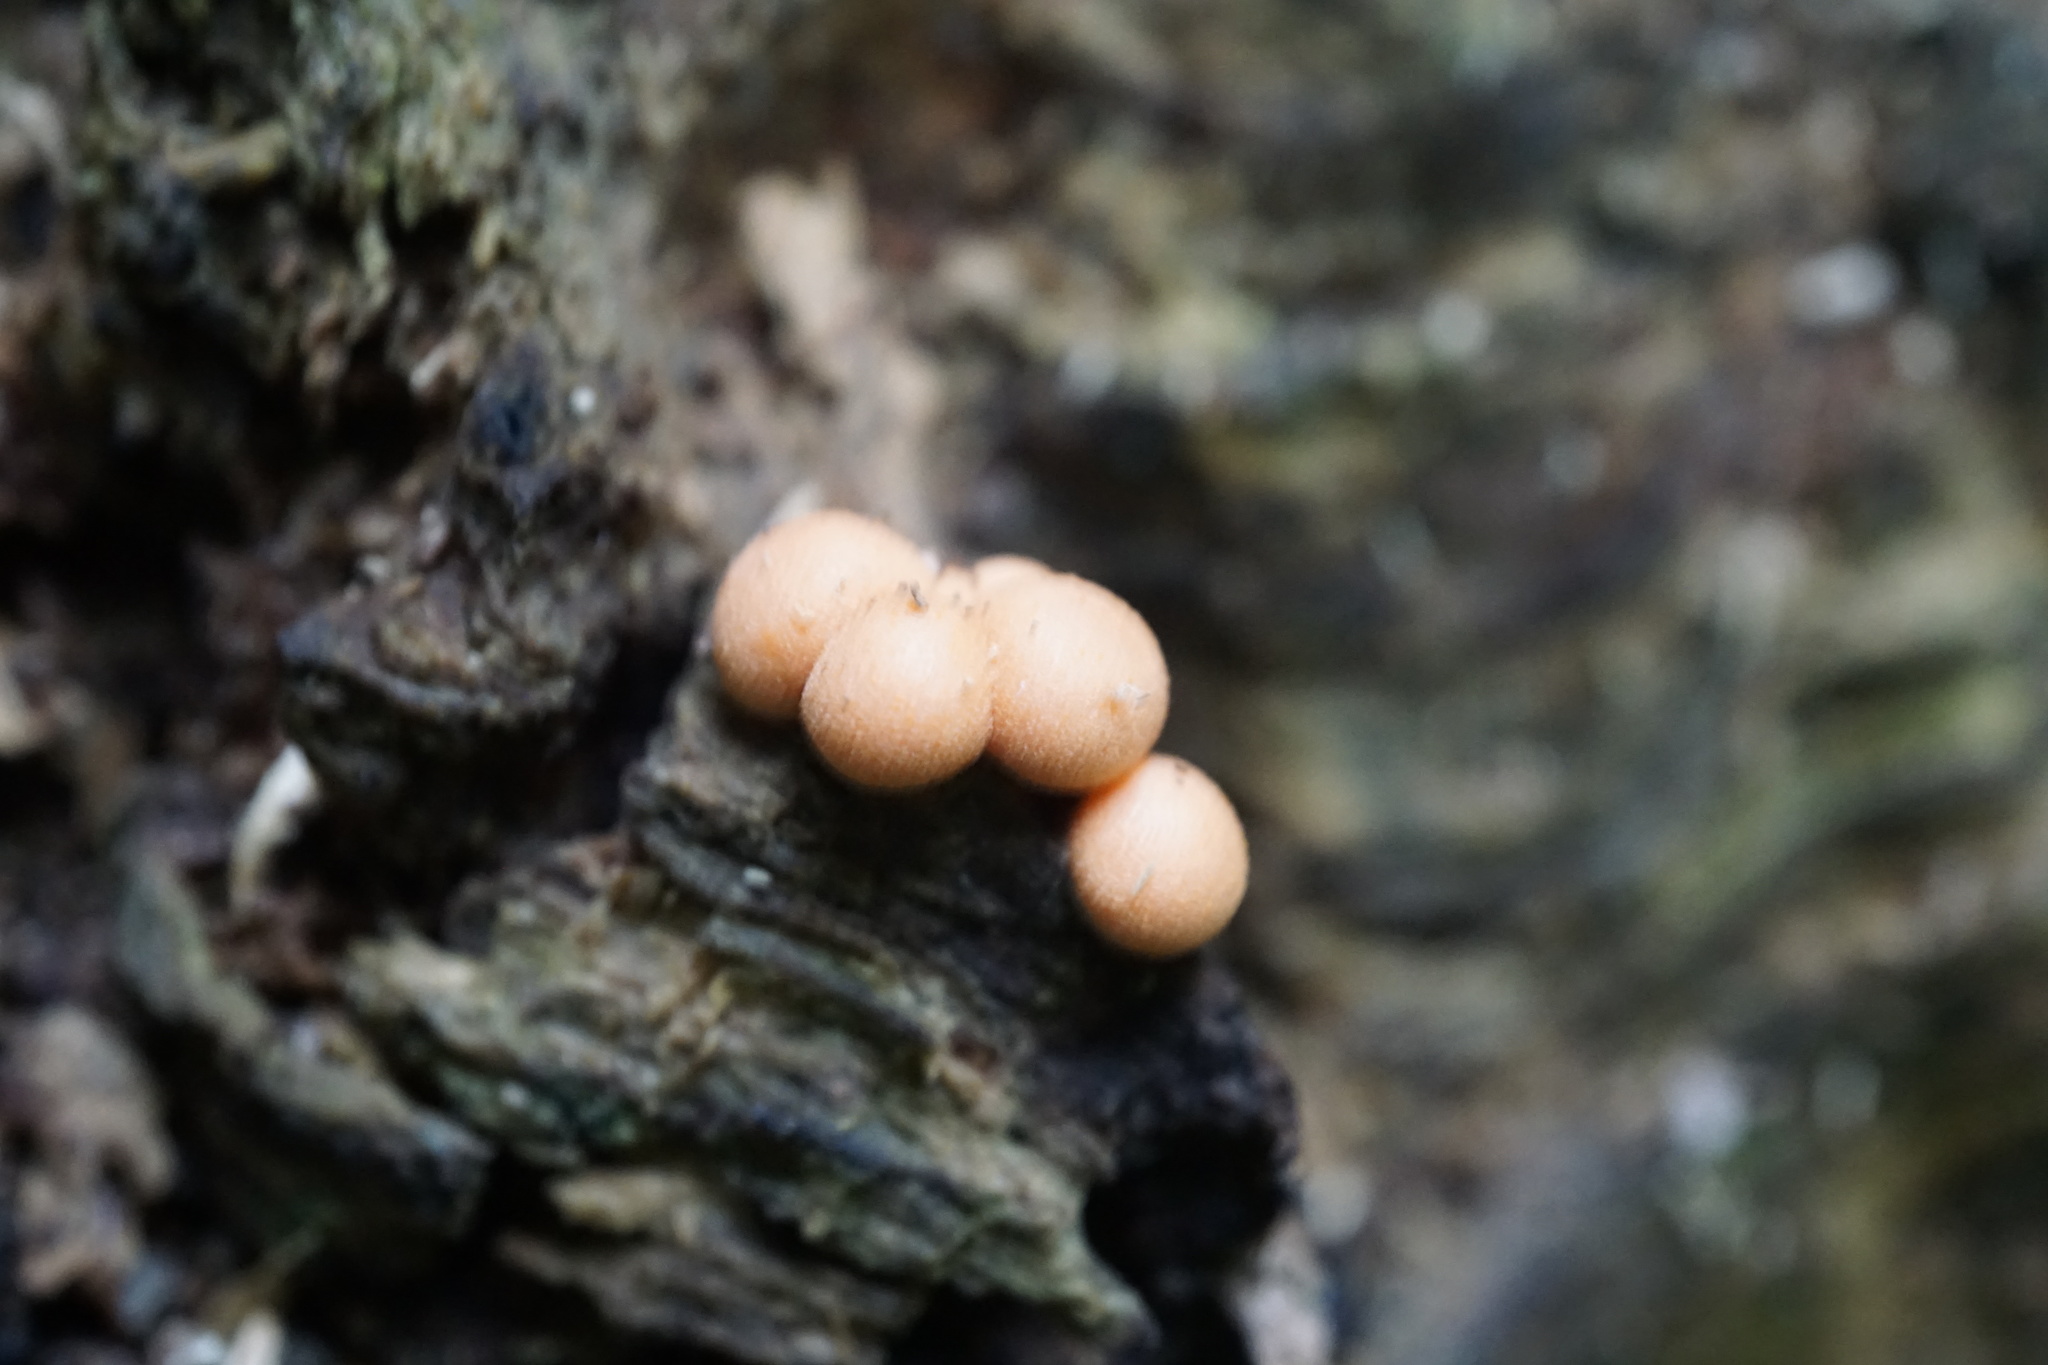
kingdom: Protozoa
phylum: Mycetozoa
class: Myxomycetes
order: Cribrariales
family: Tubiferaceae
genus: Lycogala
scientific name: Lycogala epidendrum
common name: Wolf's milk
